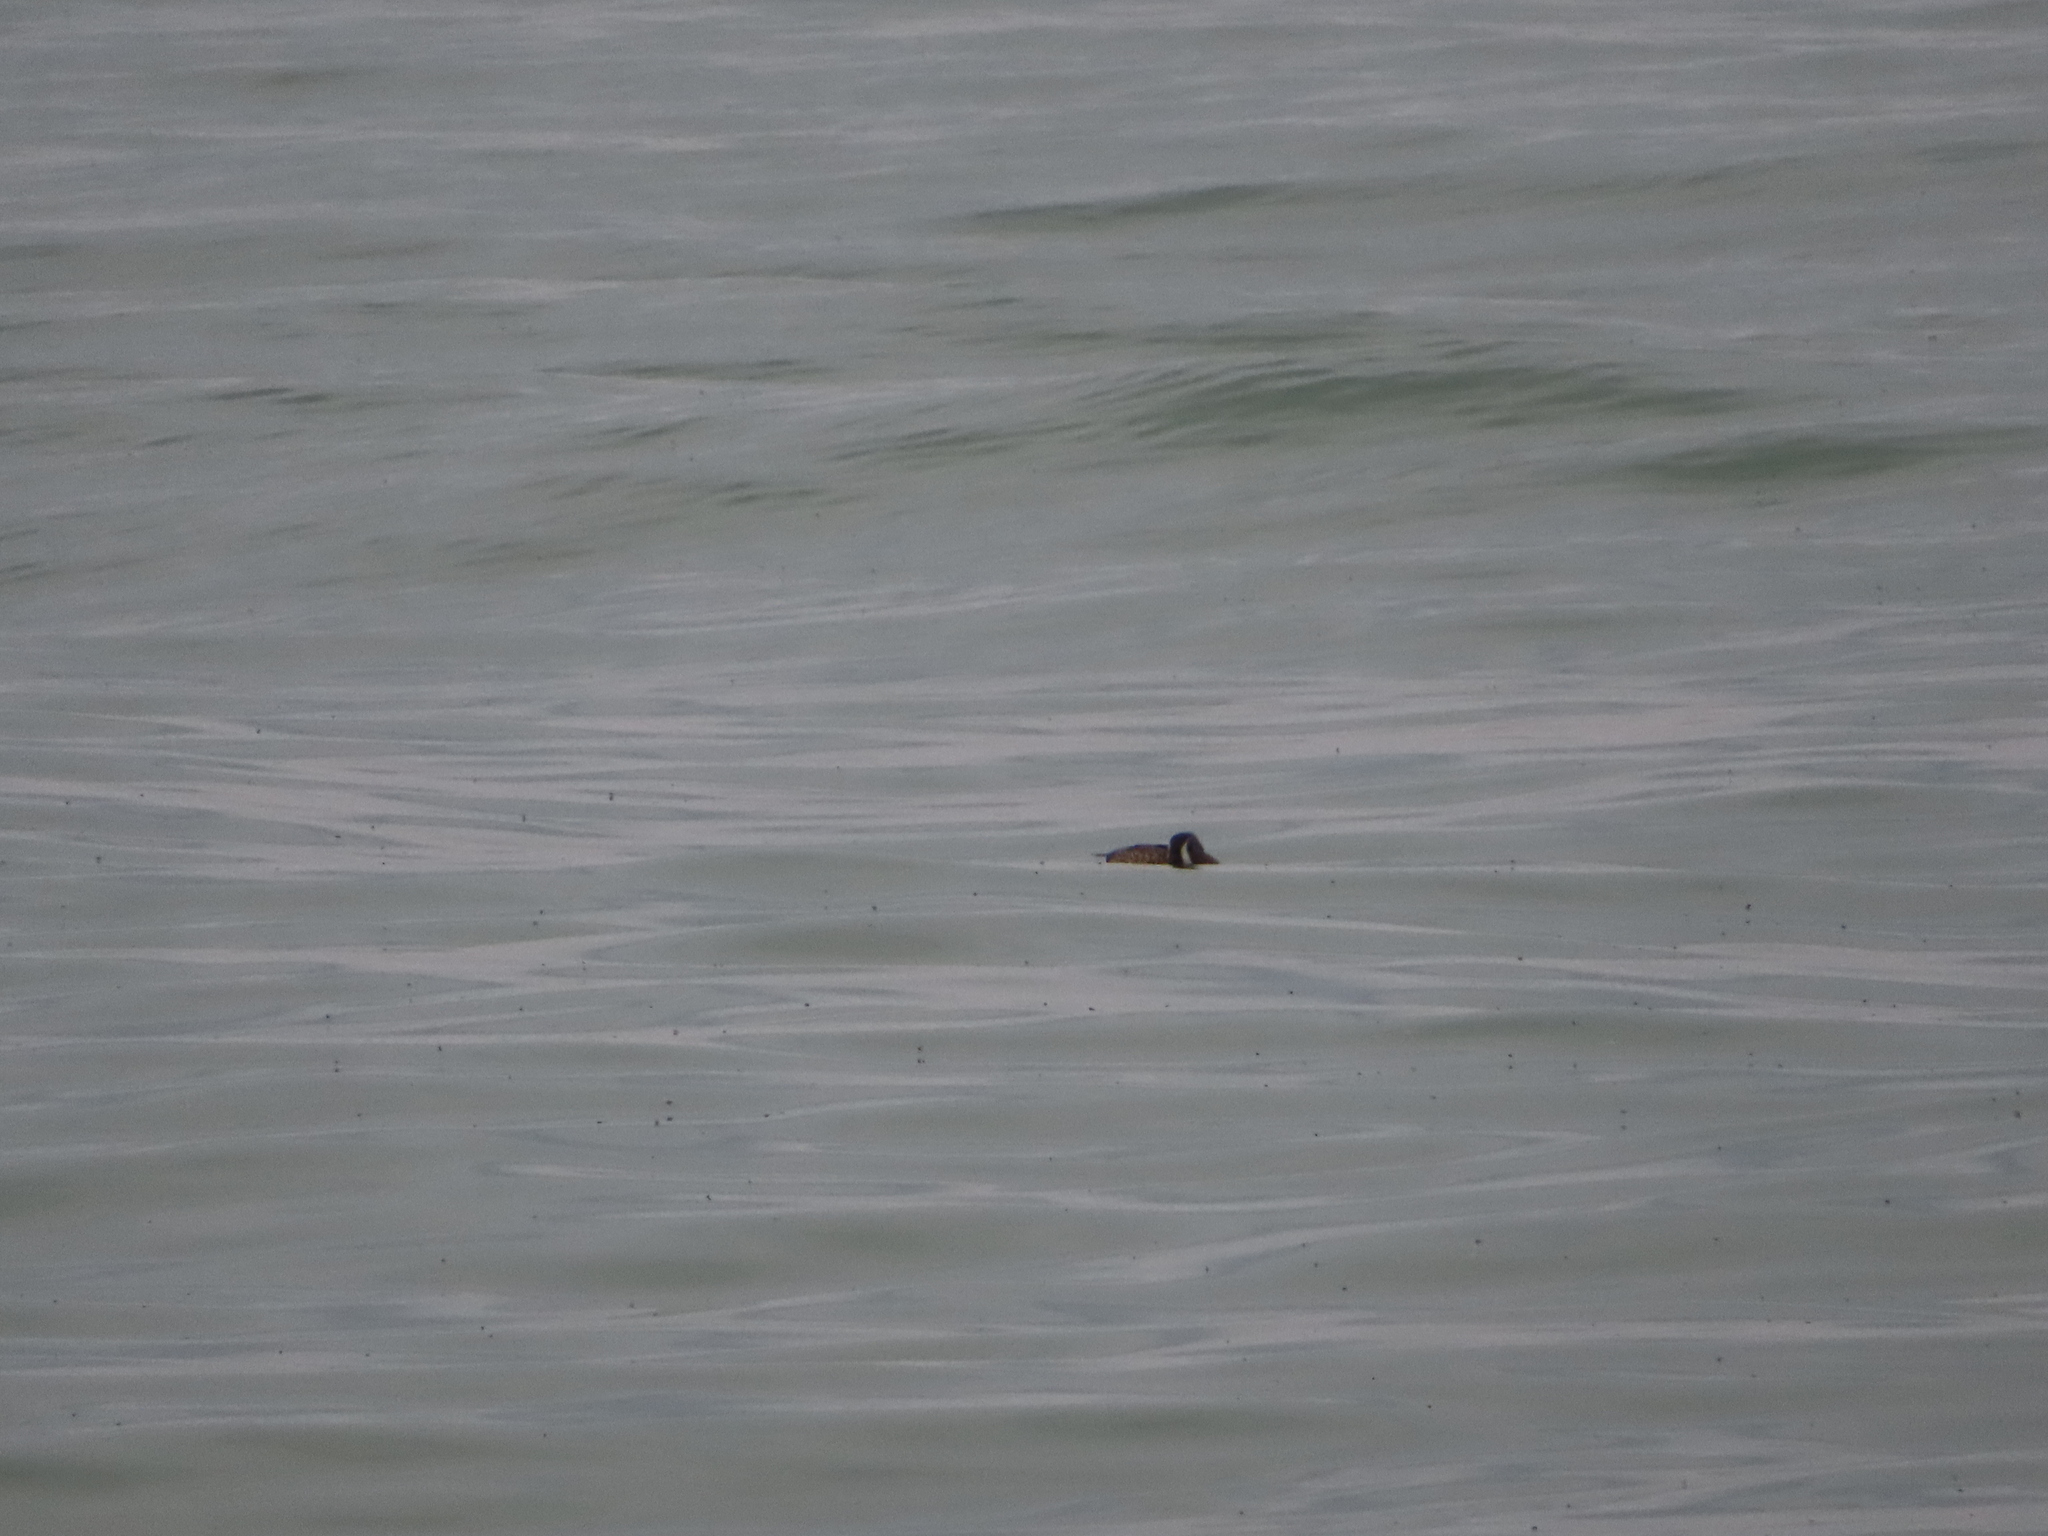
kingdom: Animalia
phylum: Chordata
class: Aves
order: Anseriformes
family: Anatidae
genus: Spatula
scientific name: Spatula discors
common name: Blue-winged teal
